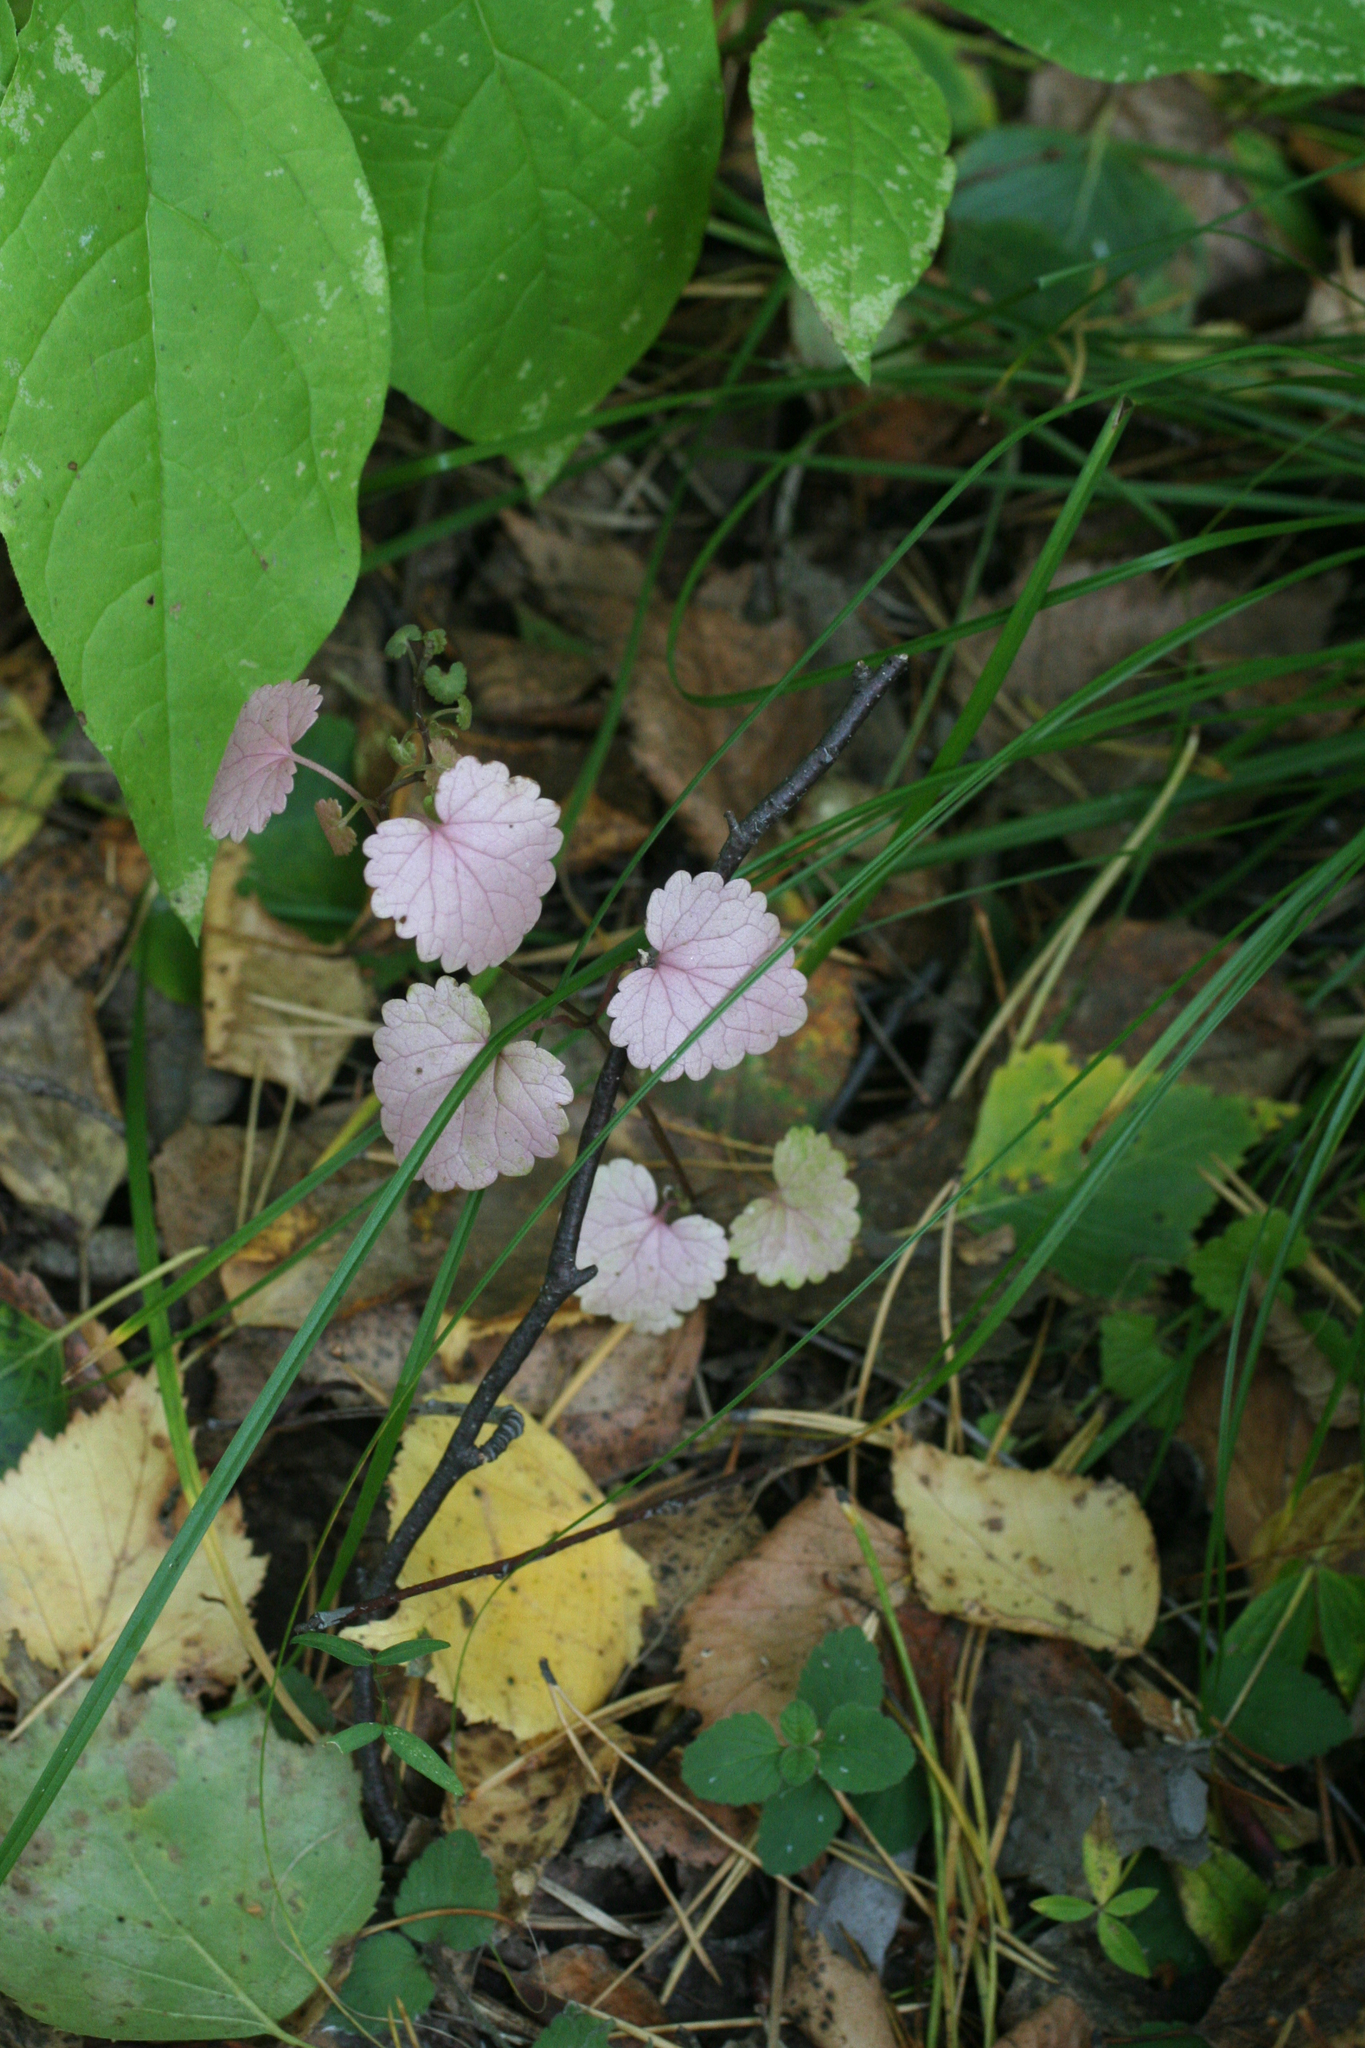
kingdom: Plantae
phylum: Tracheophyta
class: Magnoliopsida
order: Lamiales
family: Lamiaceae
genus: Glechoma
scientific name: Glechoma hederacea
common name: Ground ivy
